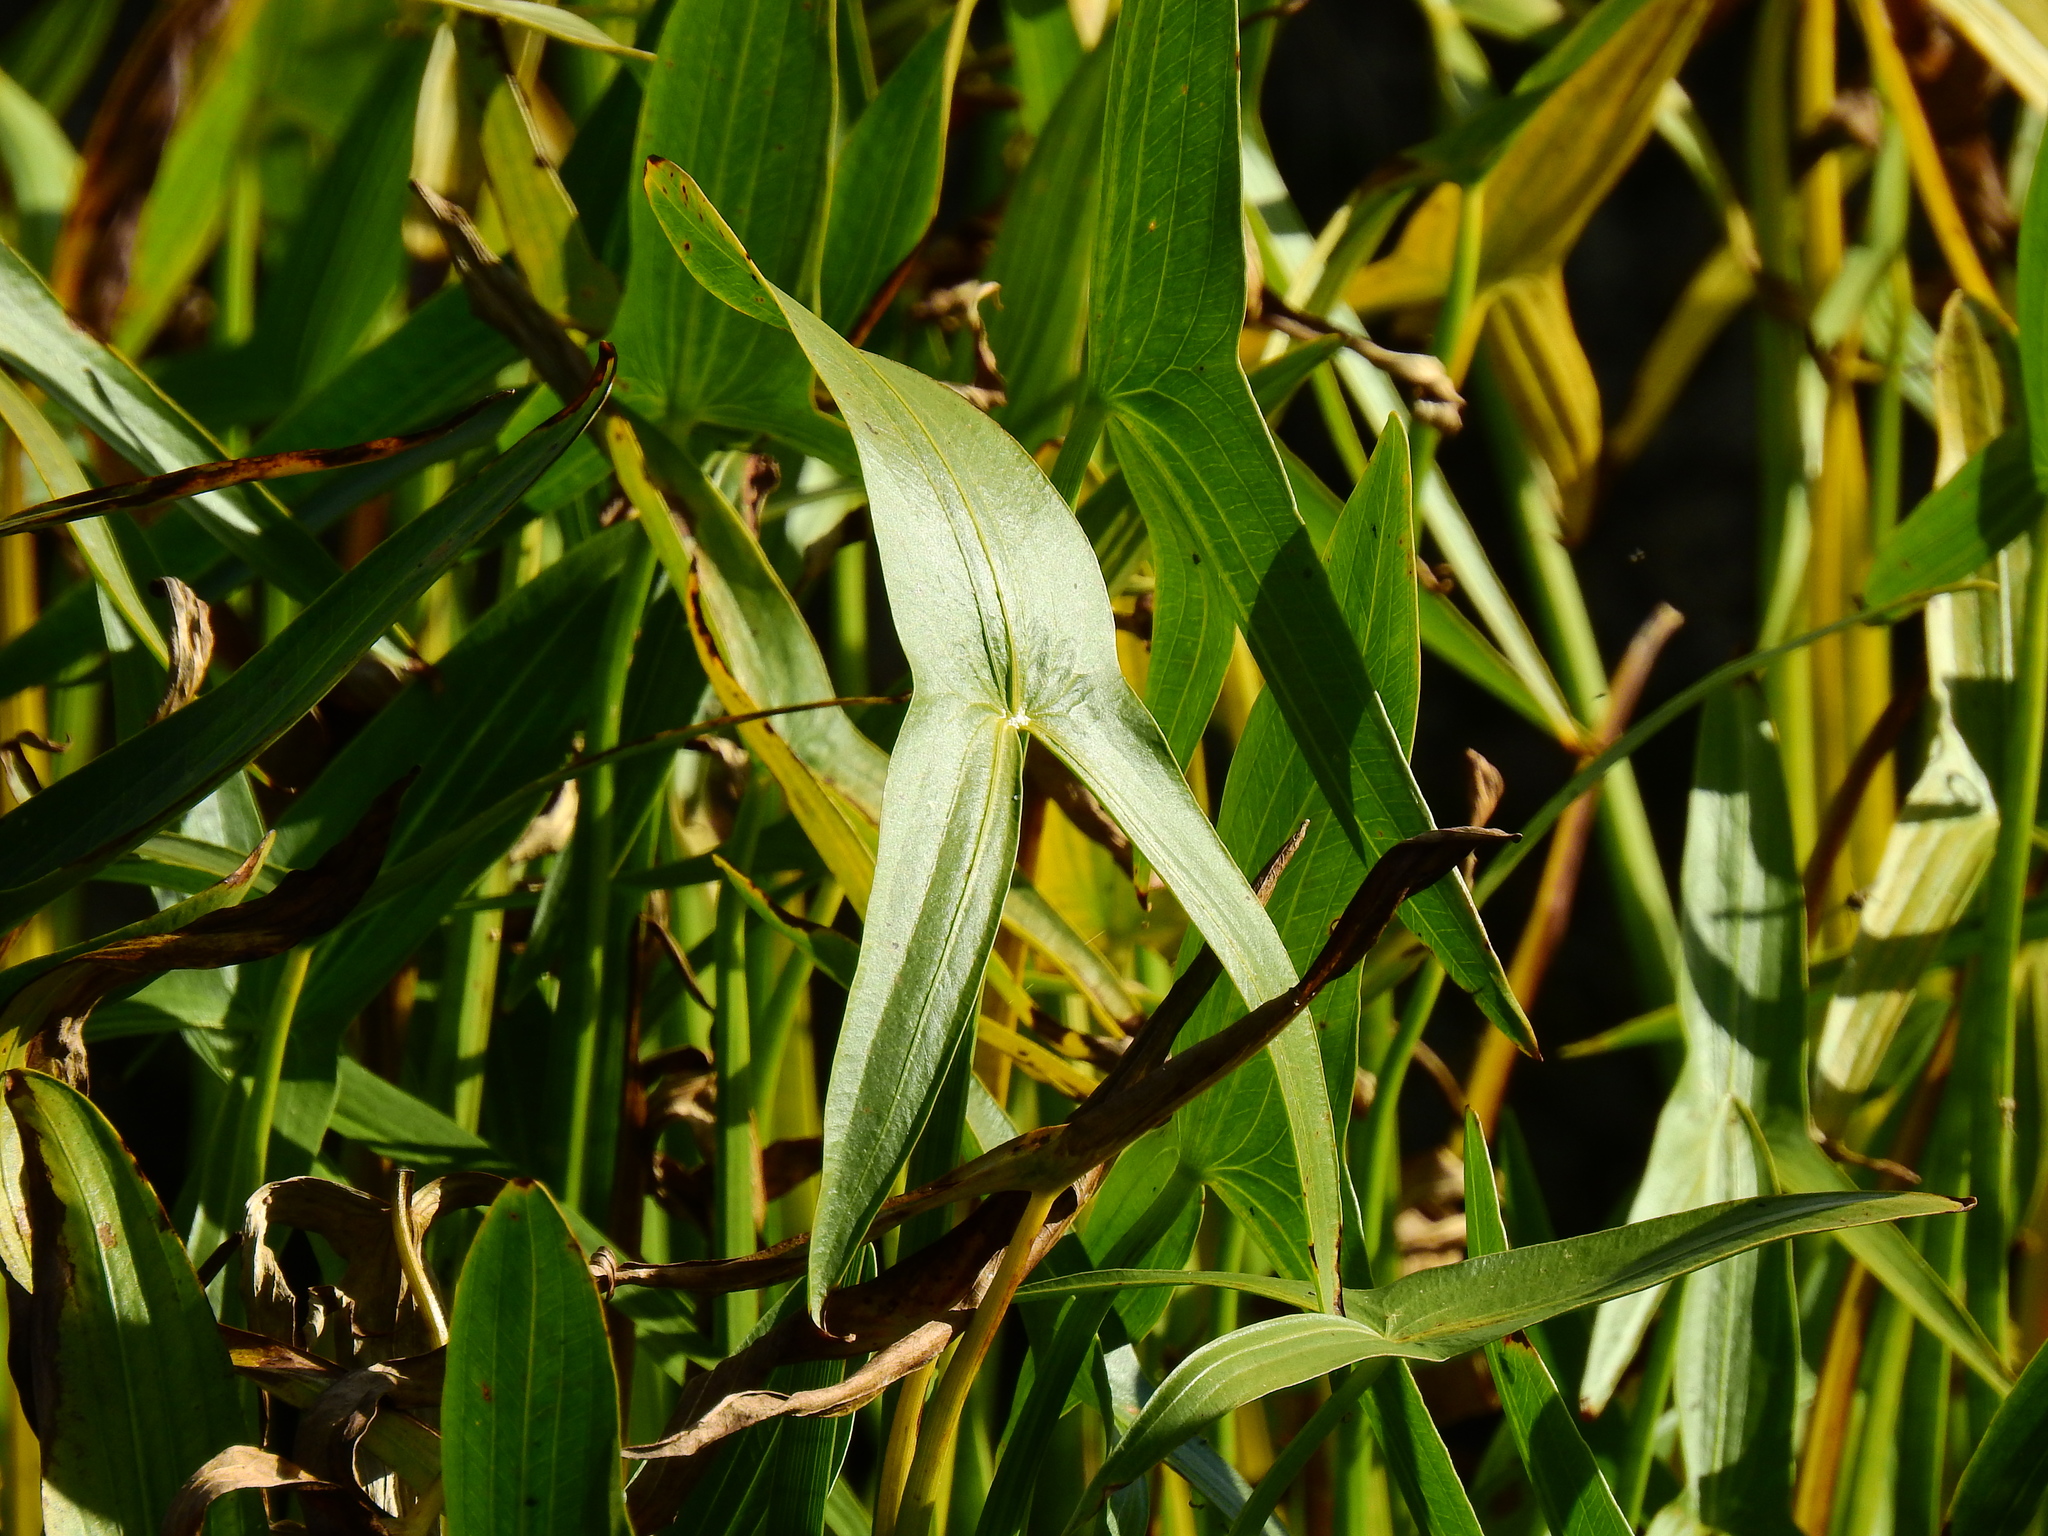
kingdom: Plantae
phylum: Tracheophyta
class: Liliopsida
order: Alismatales
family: Alismataceae
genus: Sagittaria
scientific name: Sagittaria sagittifolia
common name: Arrowhead
